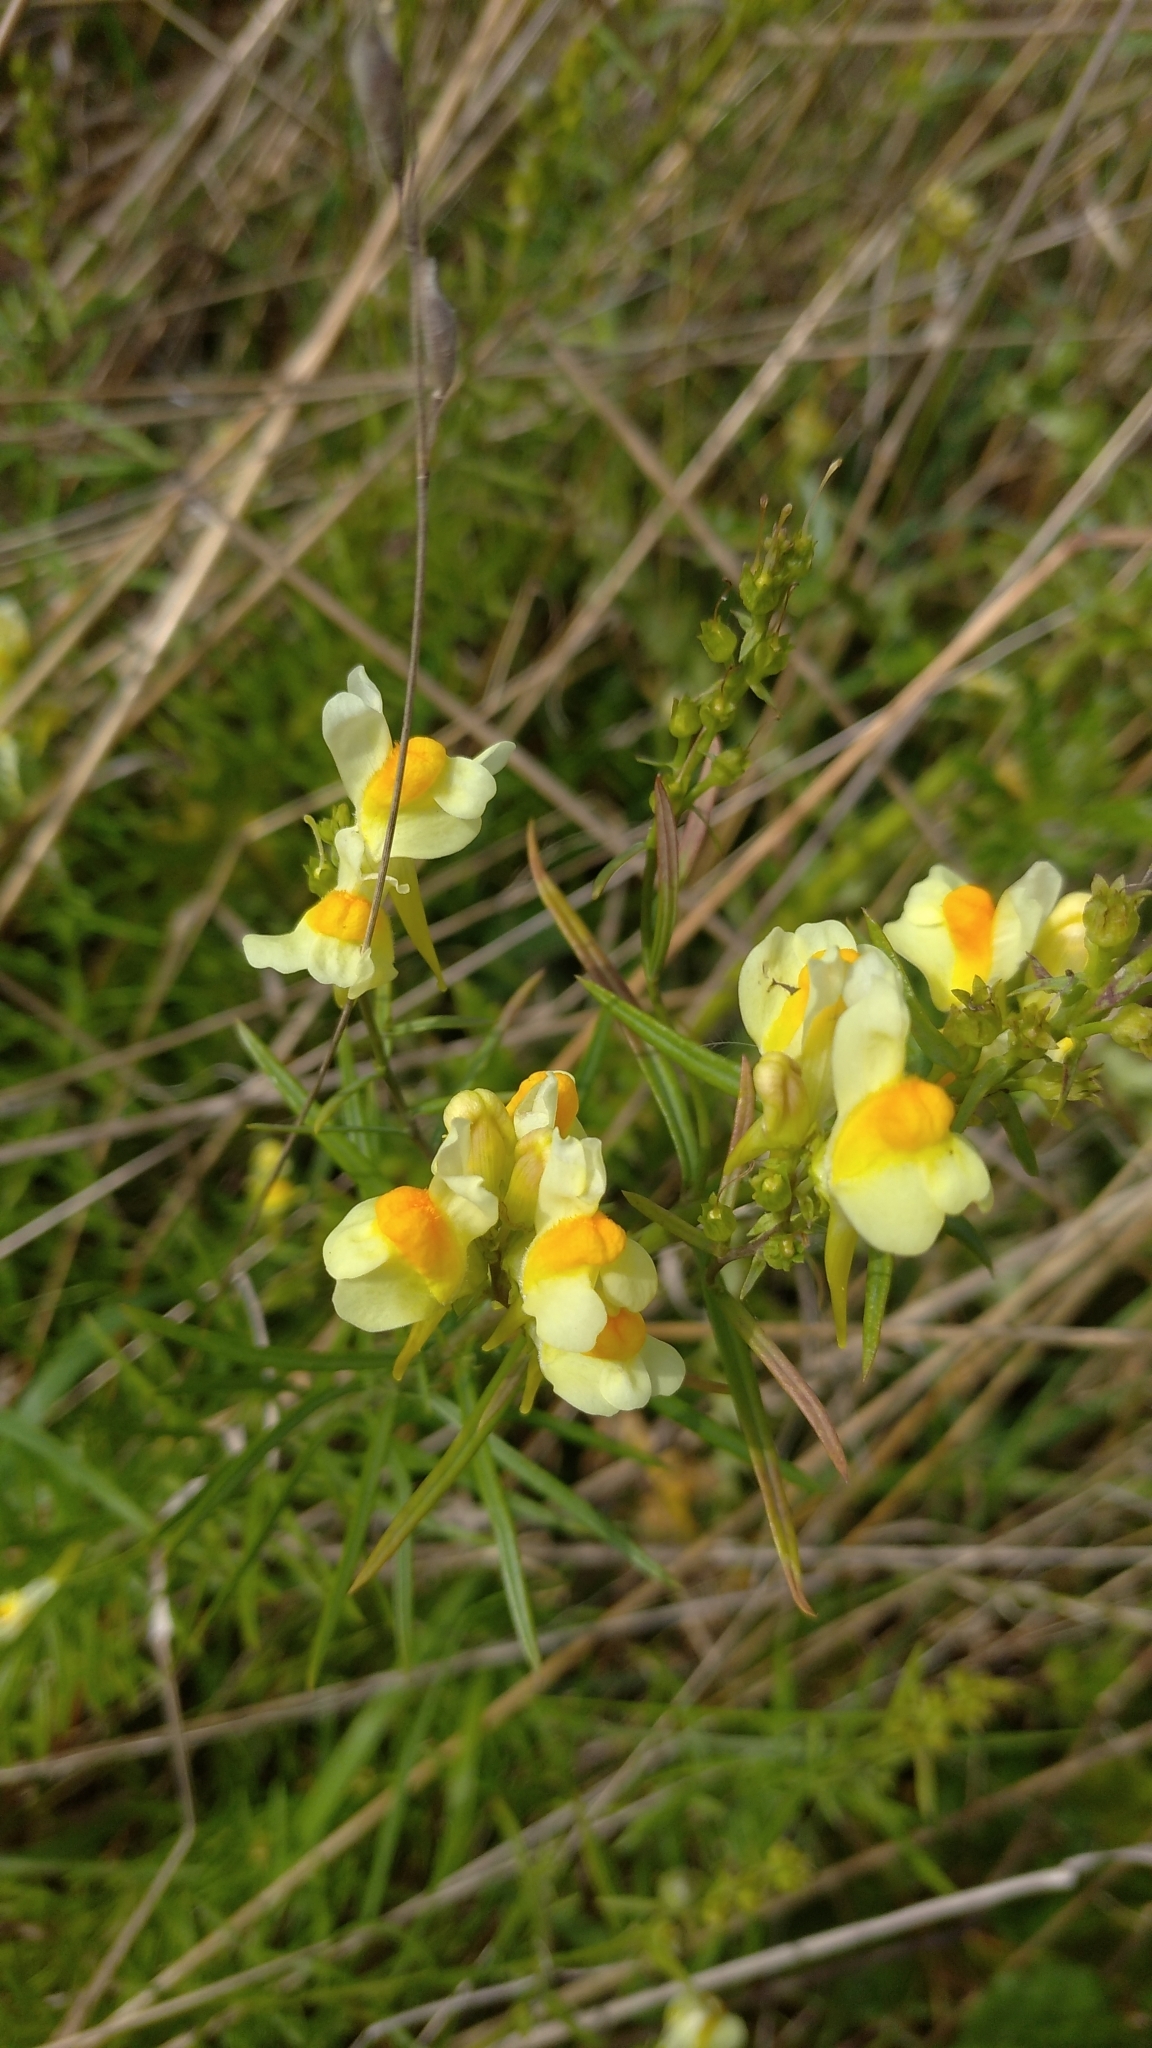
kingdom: Plantae
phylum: Tracheophyta
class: Magnoliopsida
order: Lamiales
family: Plantaginaceae
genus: Linaria
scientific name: Linaria vulgaris
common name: Butter and eggs
